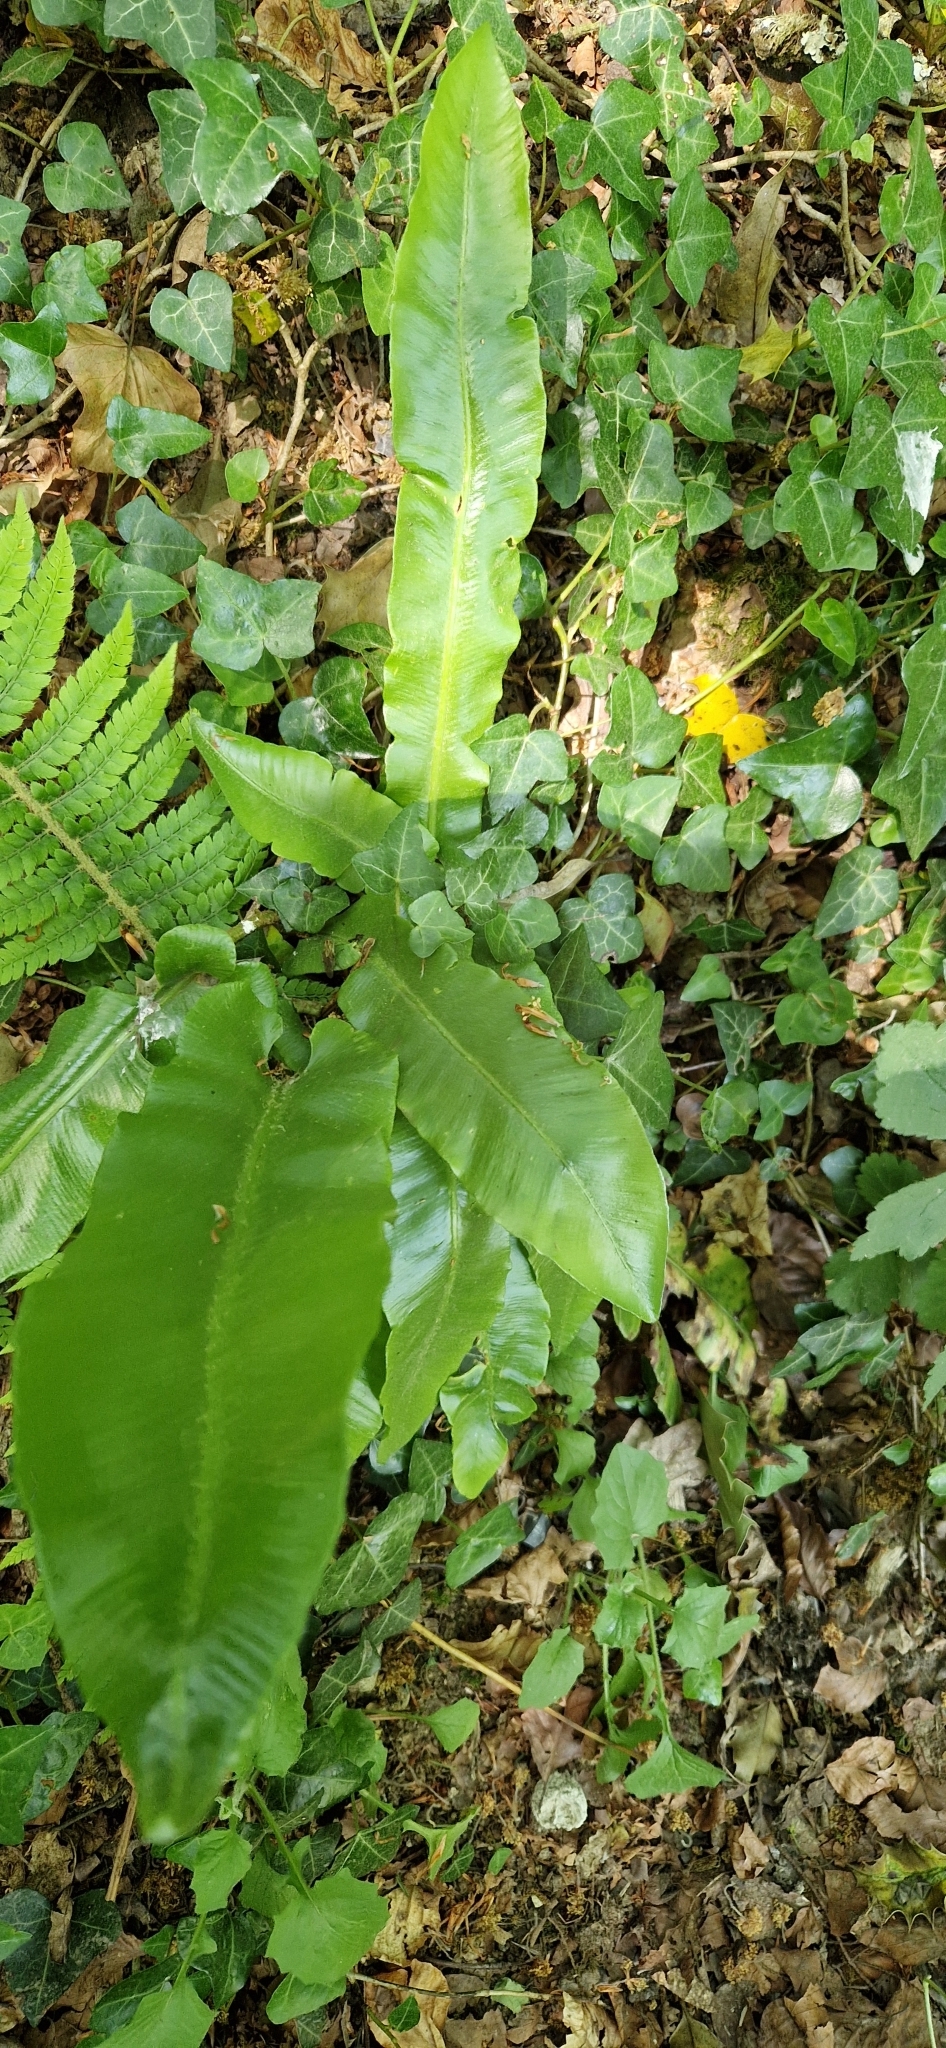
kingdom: Plantae
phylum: Tracheophyta
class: Polypodiopsida
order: Polypodiales
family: Aspleniaceae
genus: Asplenium
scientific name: Asplenium scolopendrium
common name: Hart's-tongue fern
